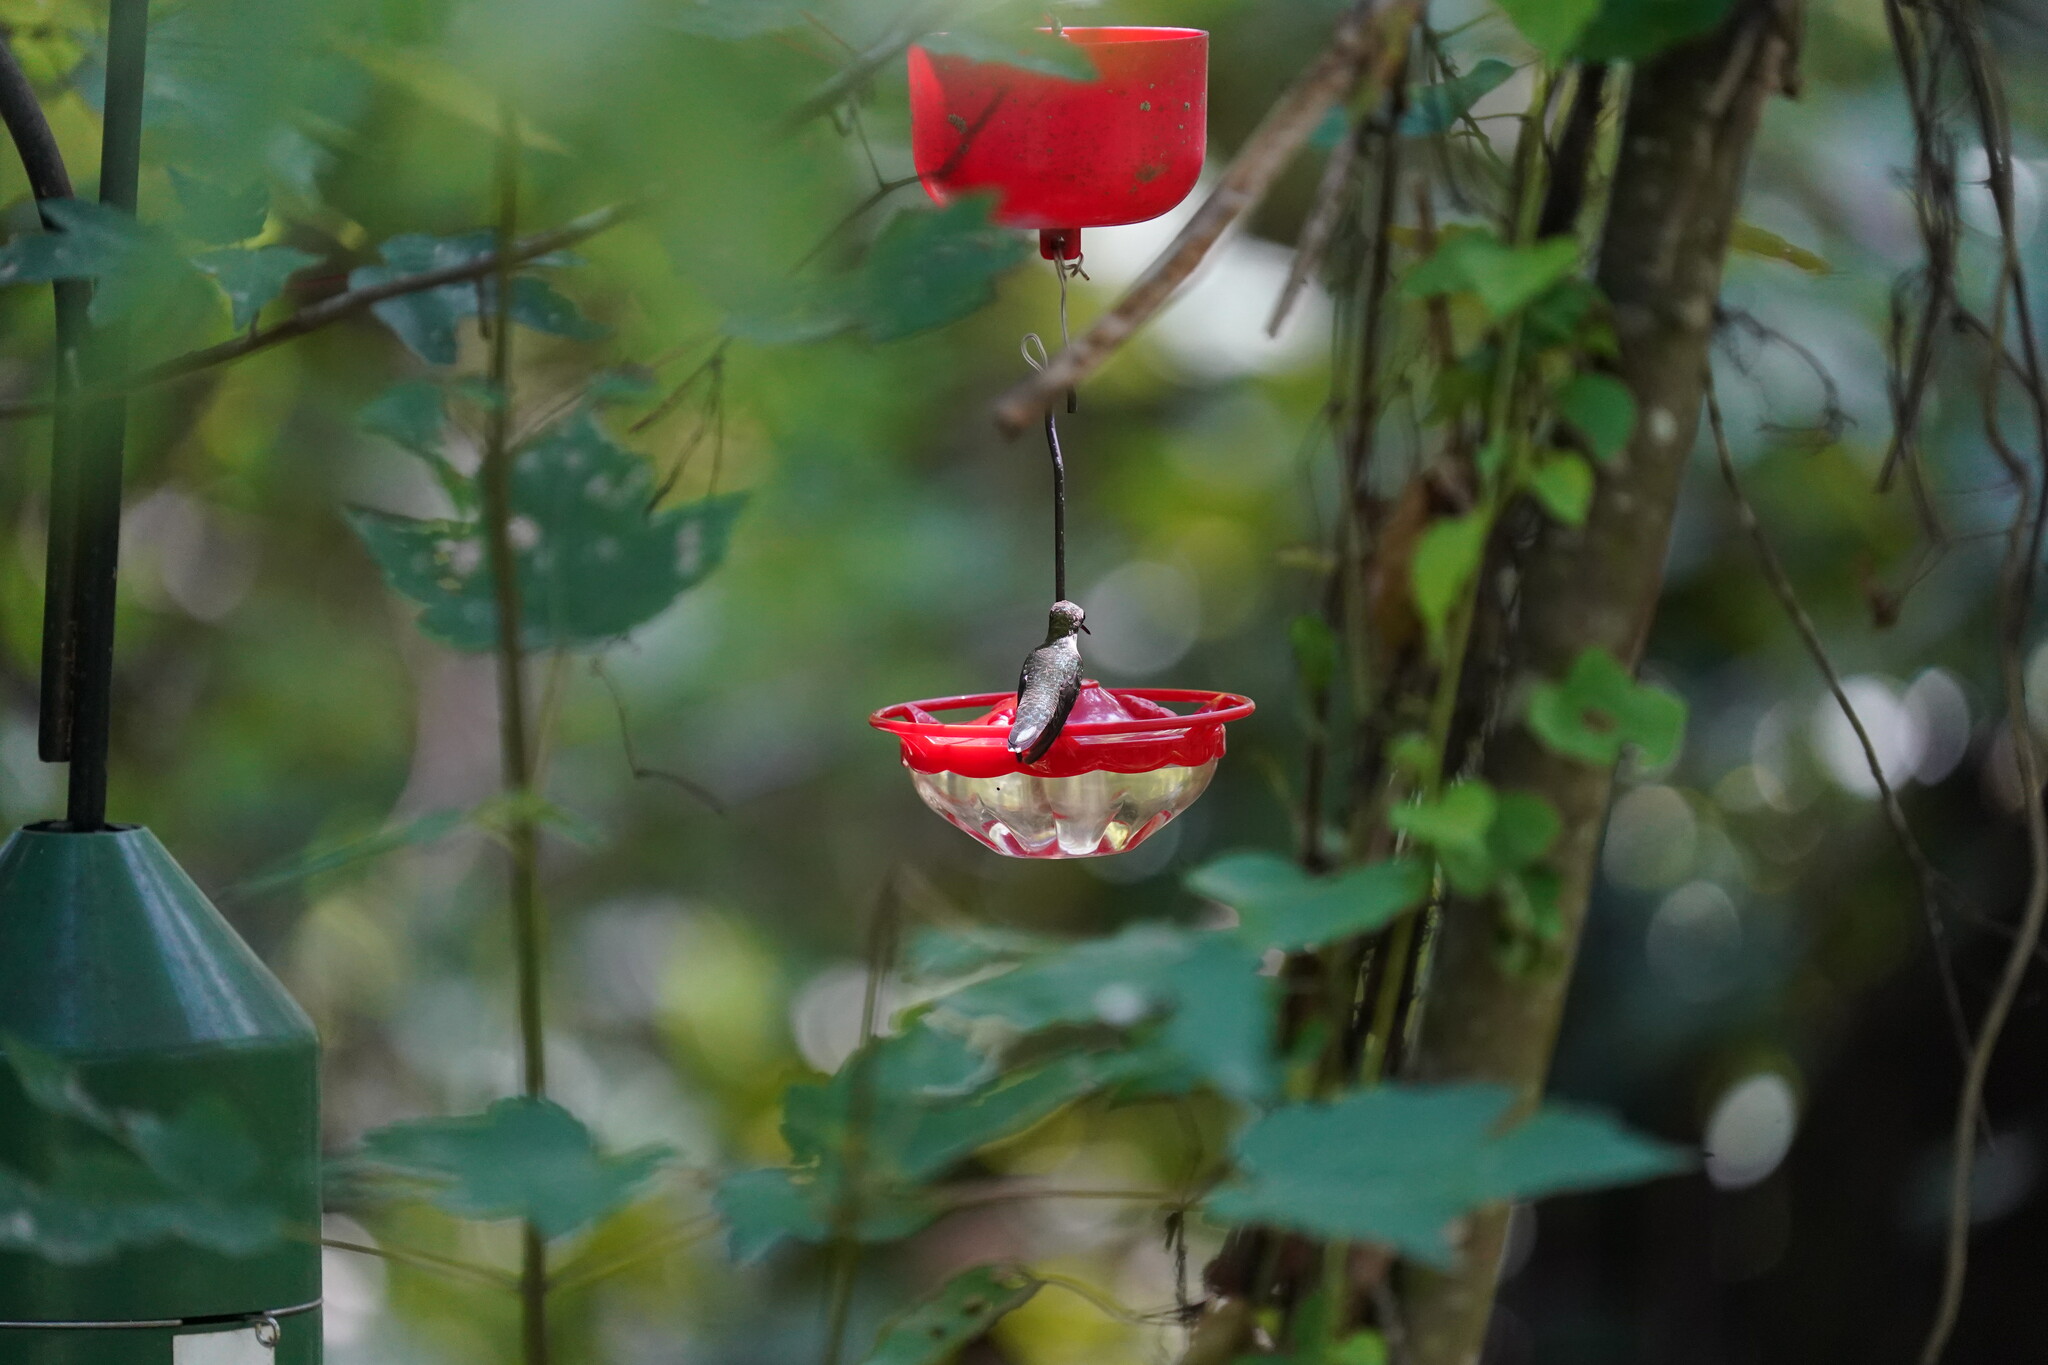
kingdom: Animalia
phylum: Chordata
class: Aves
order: Apodiformes
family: Trochilidae
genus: Archilochus
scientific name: Archilochus colubris
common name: Ruby-throated hummingbird
